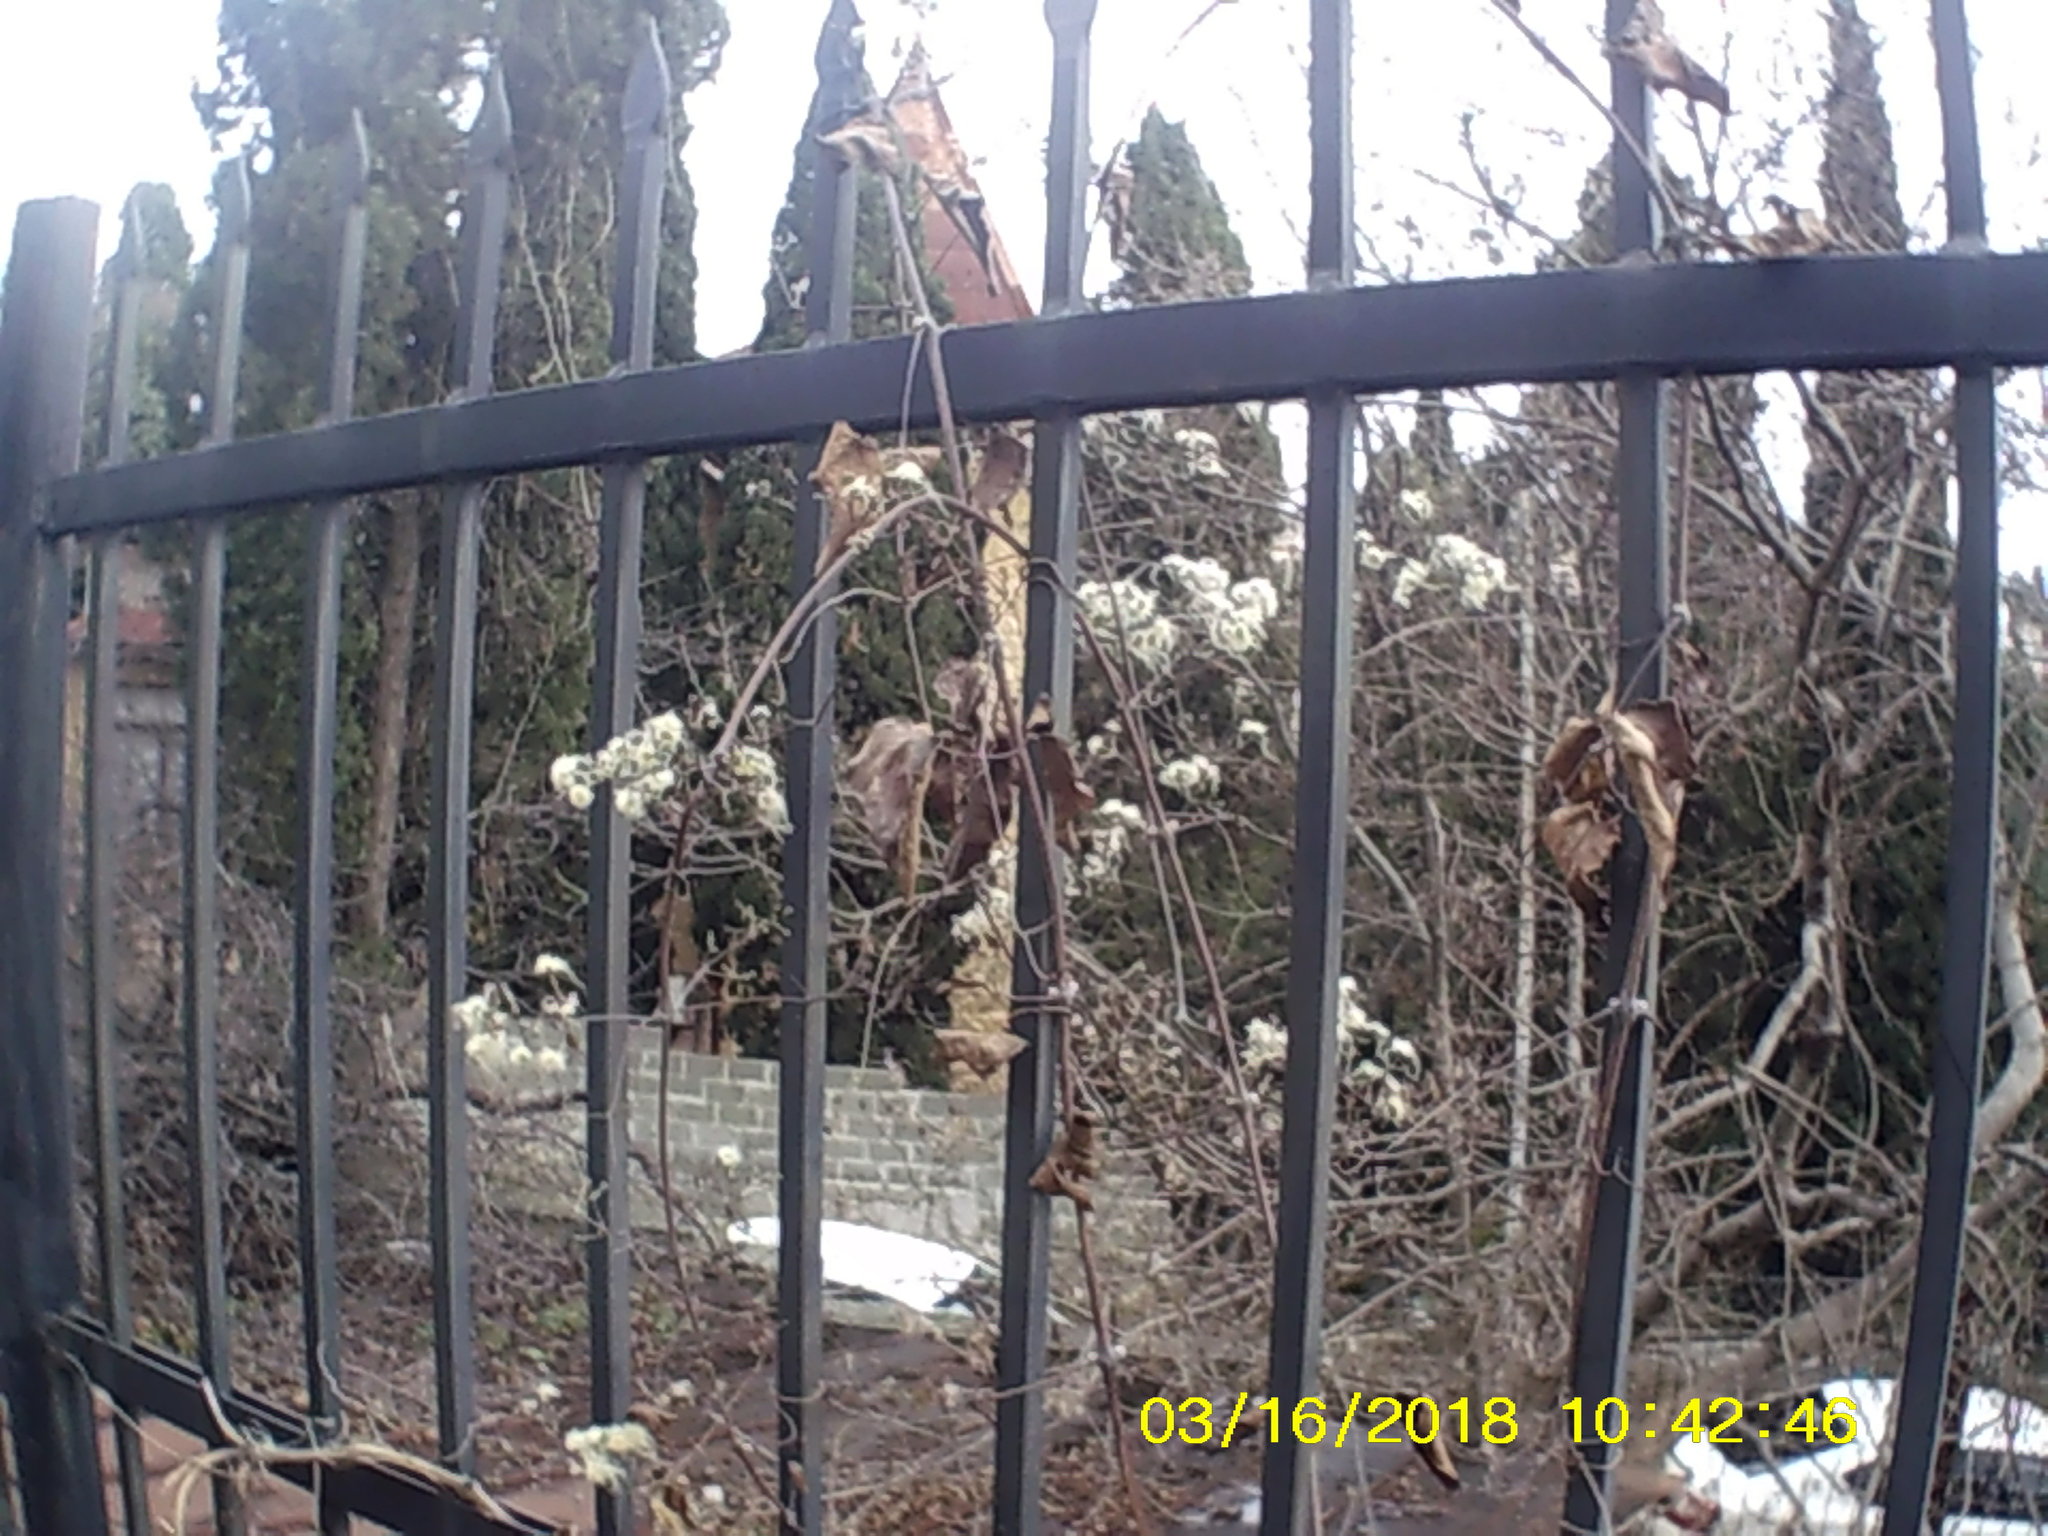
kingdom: Plantae
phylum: Tracheophyta
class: Magnoliopsida
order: Ranunculales
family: Ranunculaceae
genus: Clematis
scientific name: Clematis vitalba
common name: Evergreen clematis
